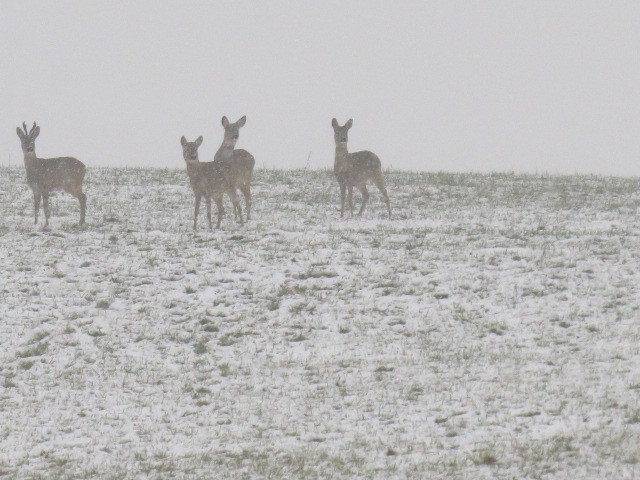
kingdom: Animalia
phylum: Chordata
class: Mammalia
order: Artiodactyla
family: Cervidae
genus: Capreolus
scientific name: Capreolus capreolus
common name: Western roe deer
